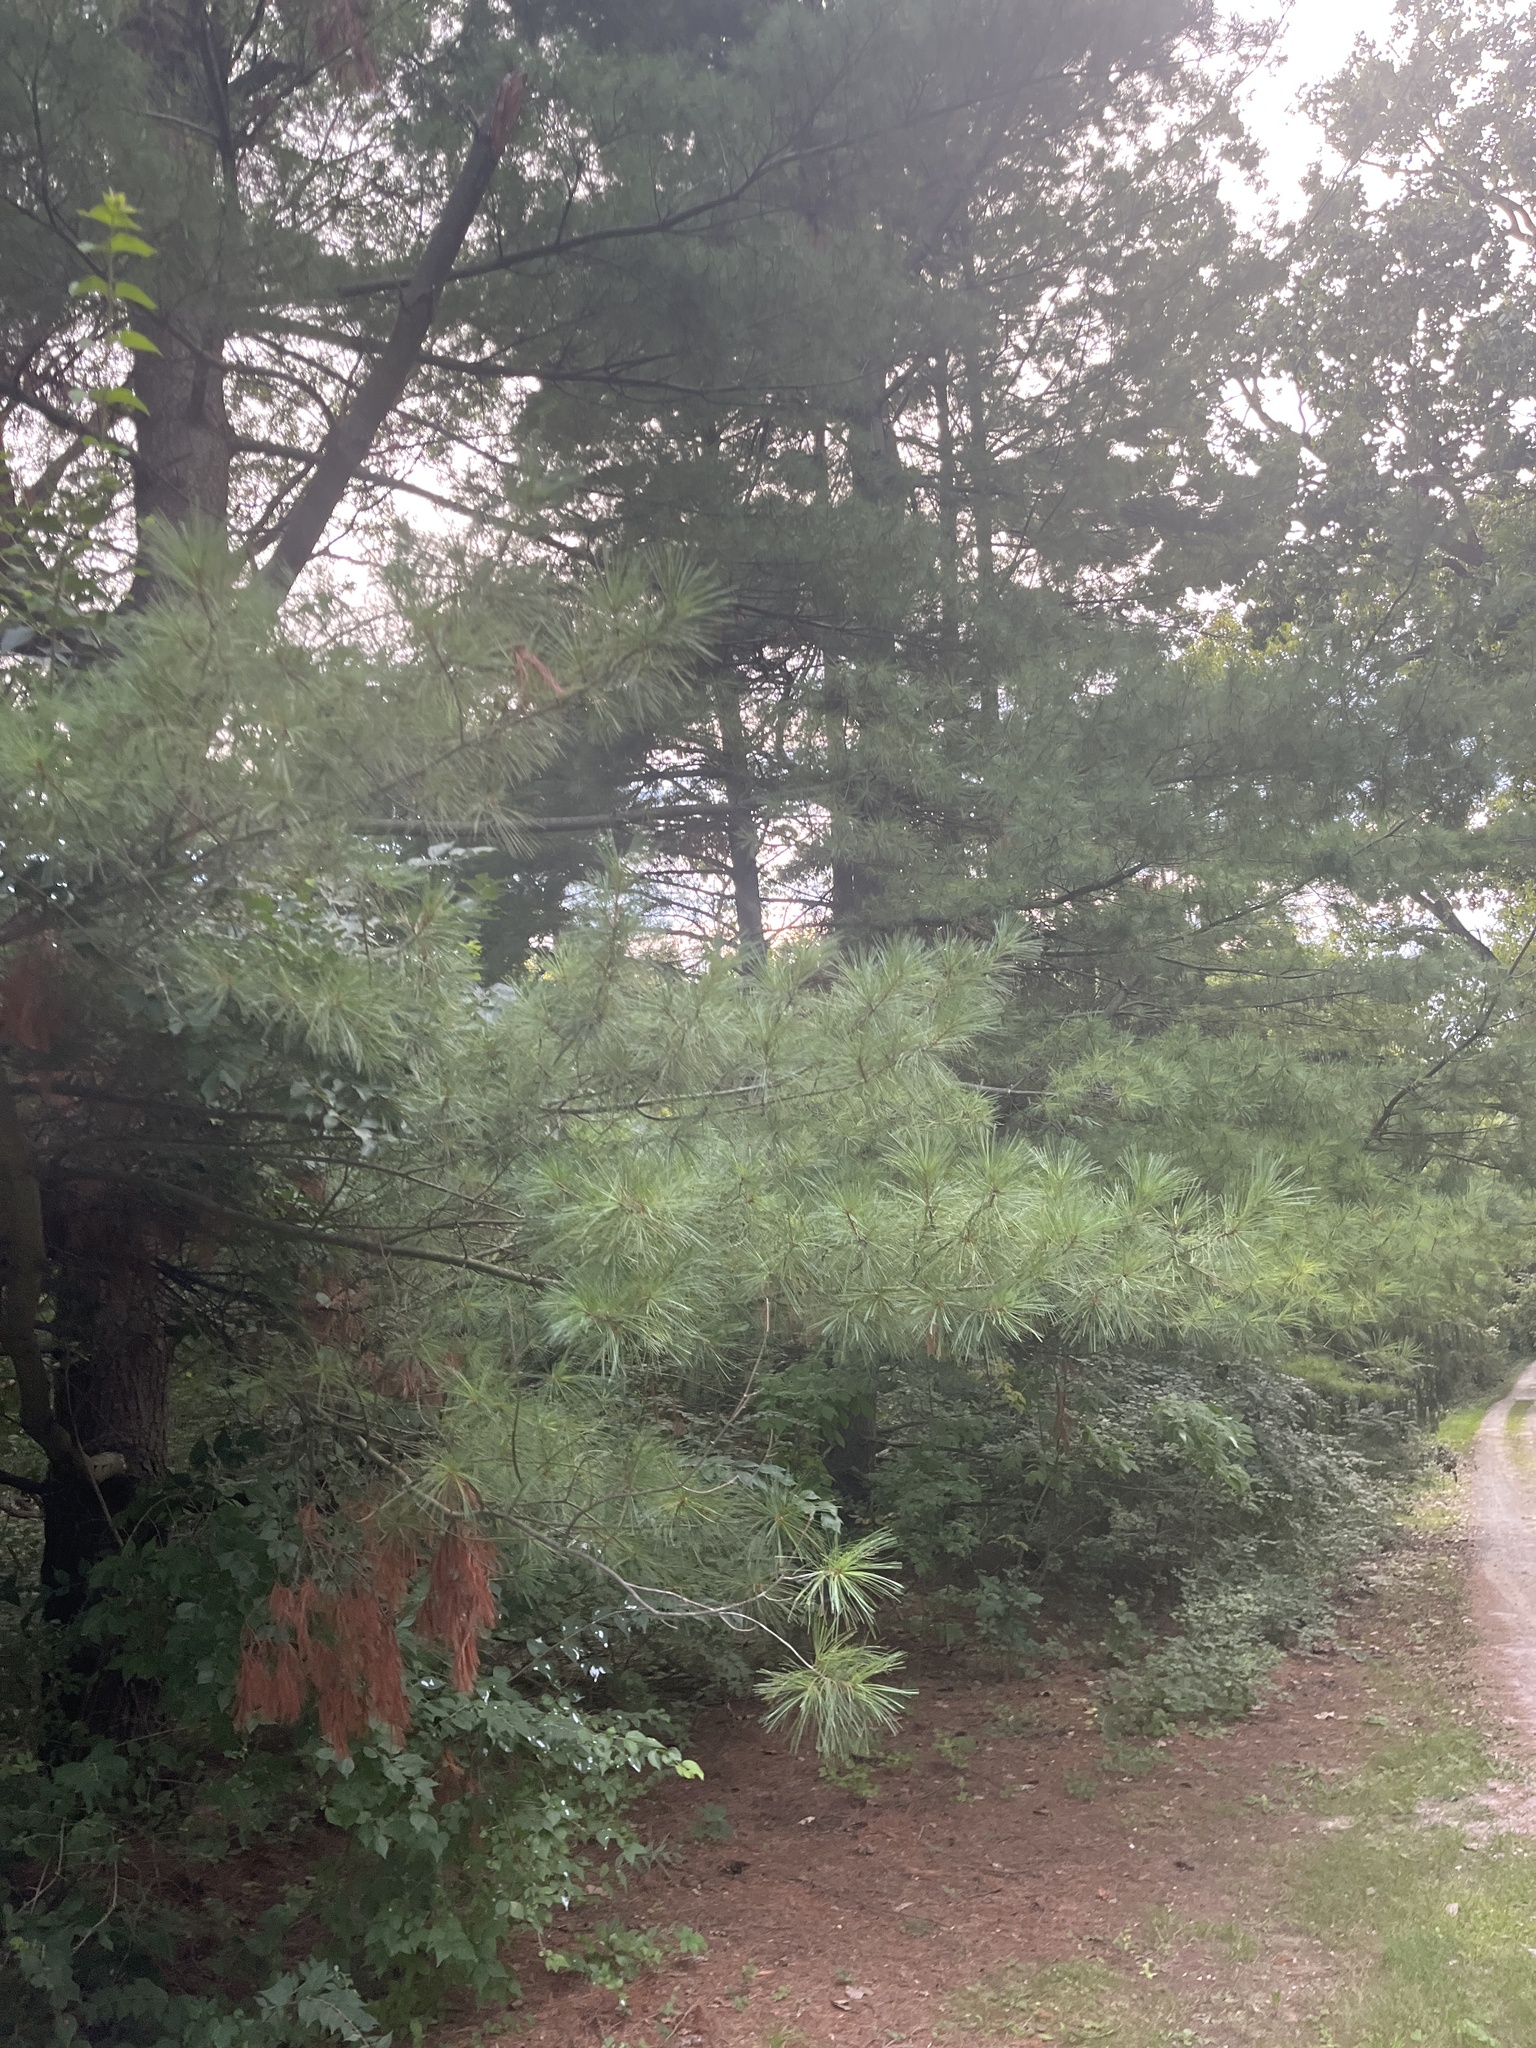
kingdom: Plantae
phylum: Tracheophyta
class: Pinopsida
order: Pinales
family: Pinaceae
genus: Pinus
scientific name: Pinus strobus
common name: Weymouth pine
